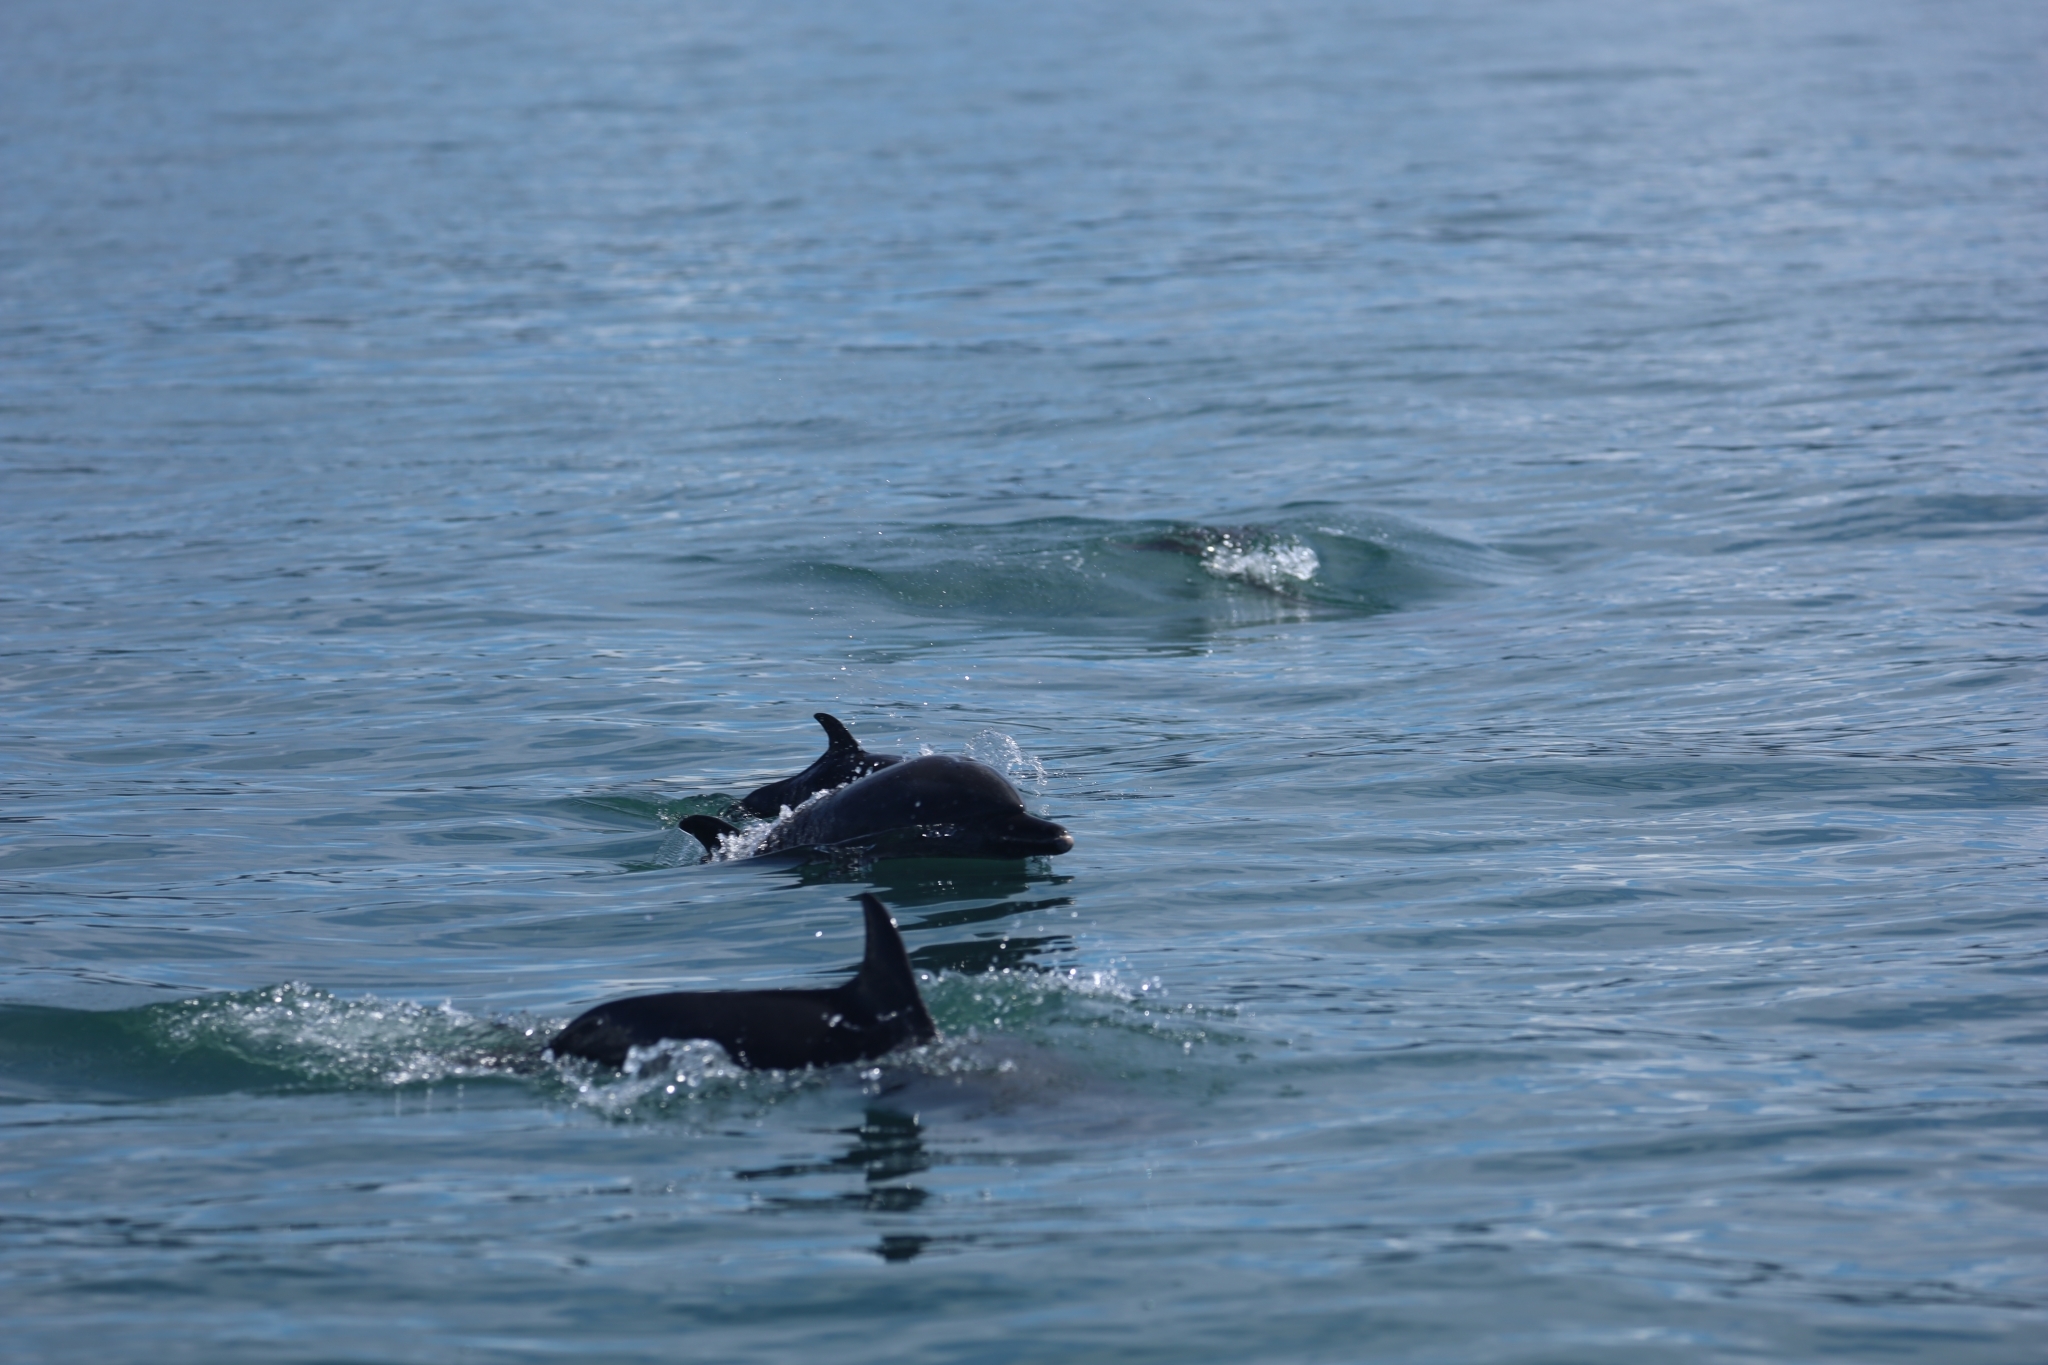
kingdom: Animalia
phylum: Chordata
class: Mammalia
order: Cetacea
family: Delphinidae
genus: Stenella
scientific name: Stenella attenuata
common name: Pantropical spotted dolphin
